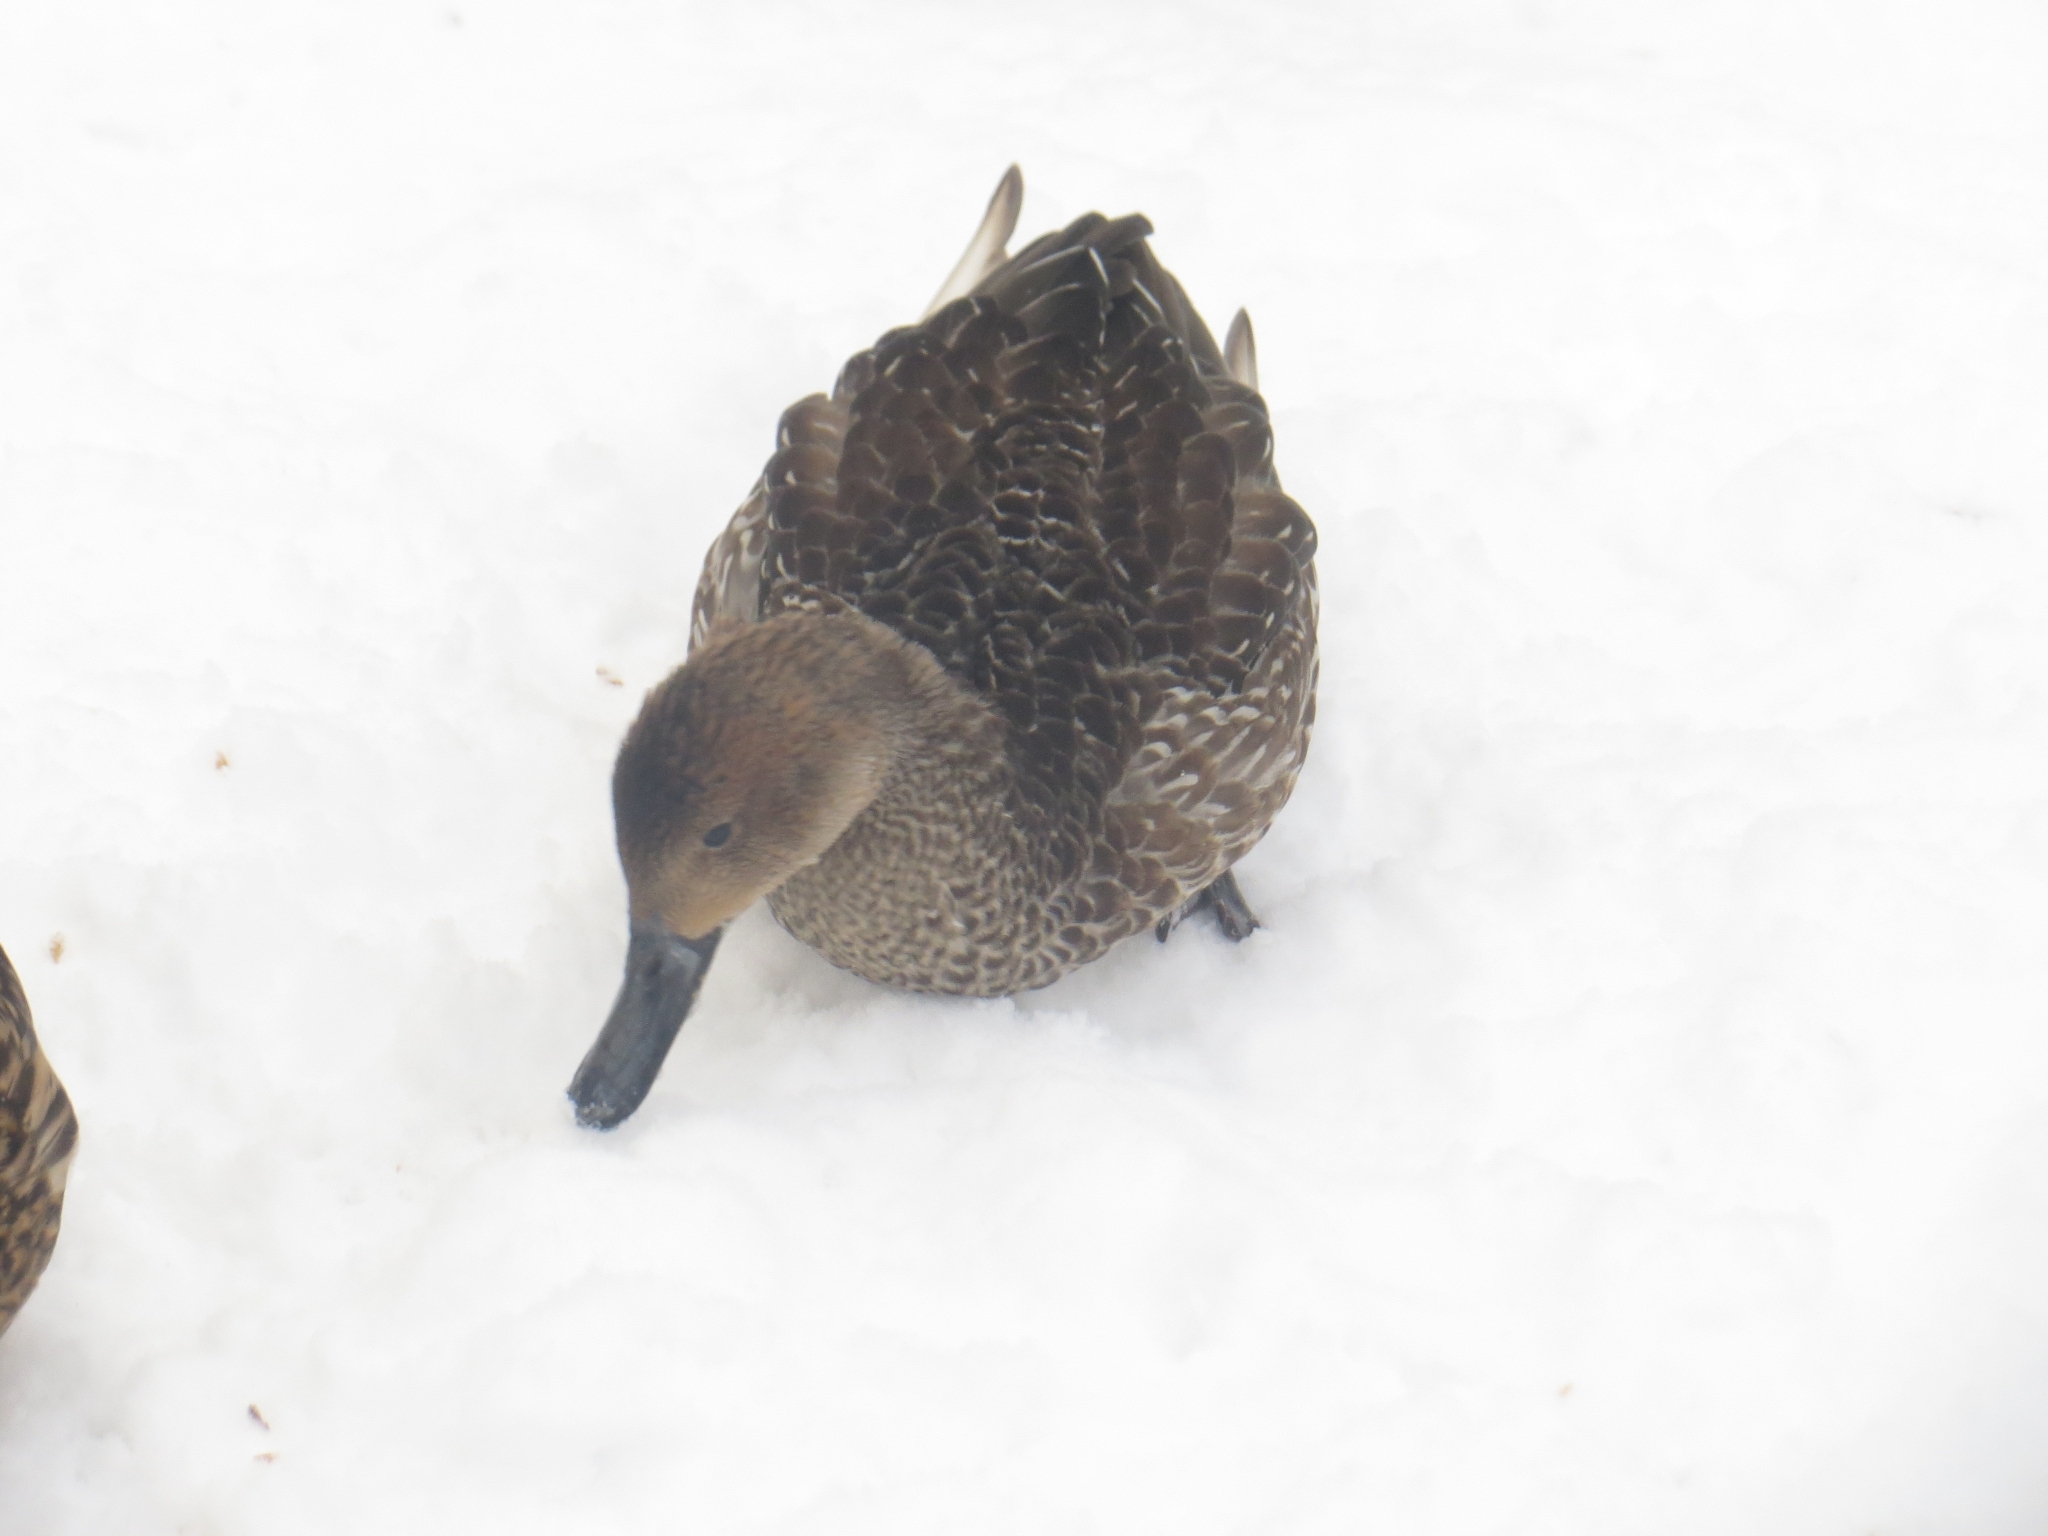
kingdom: Animalia
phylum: Chordata
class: Aves
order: Anseriformes
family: Anatidae
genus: Anas
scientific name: Anas acuta
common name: Northern pintail
